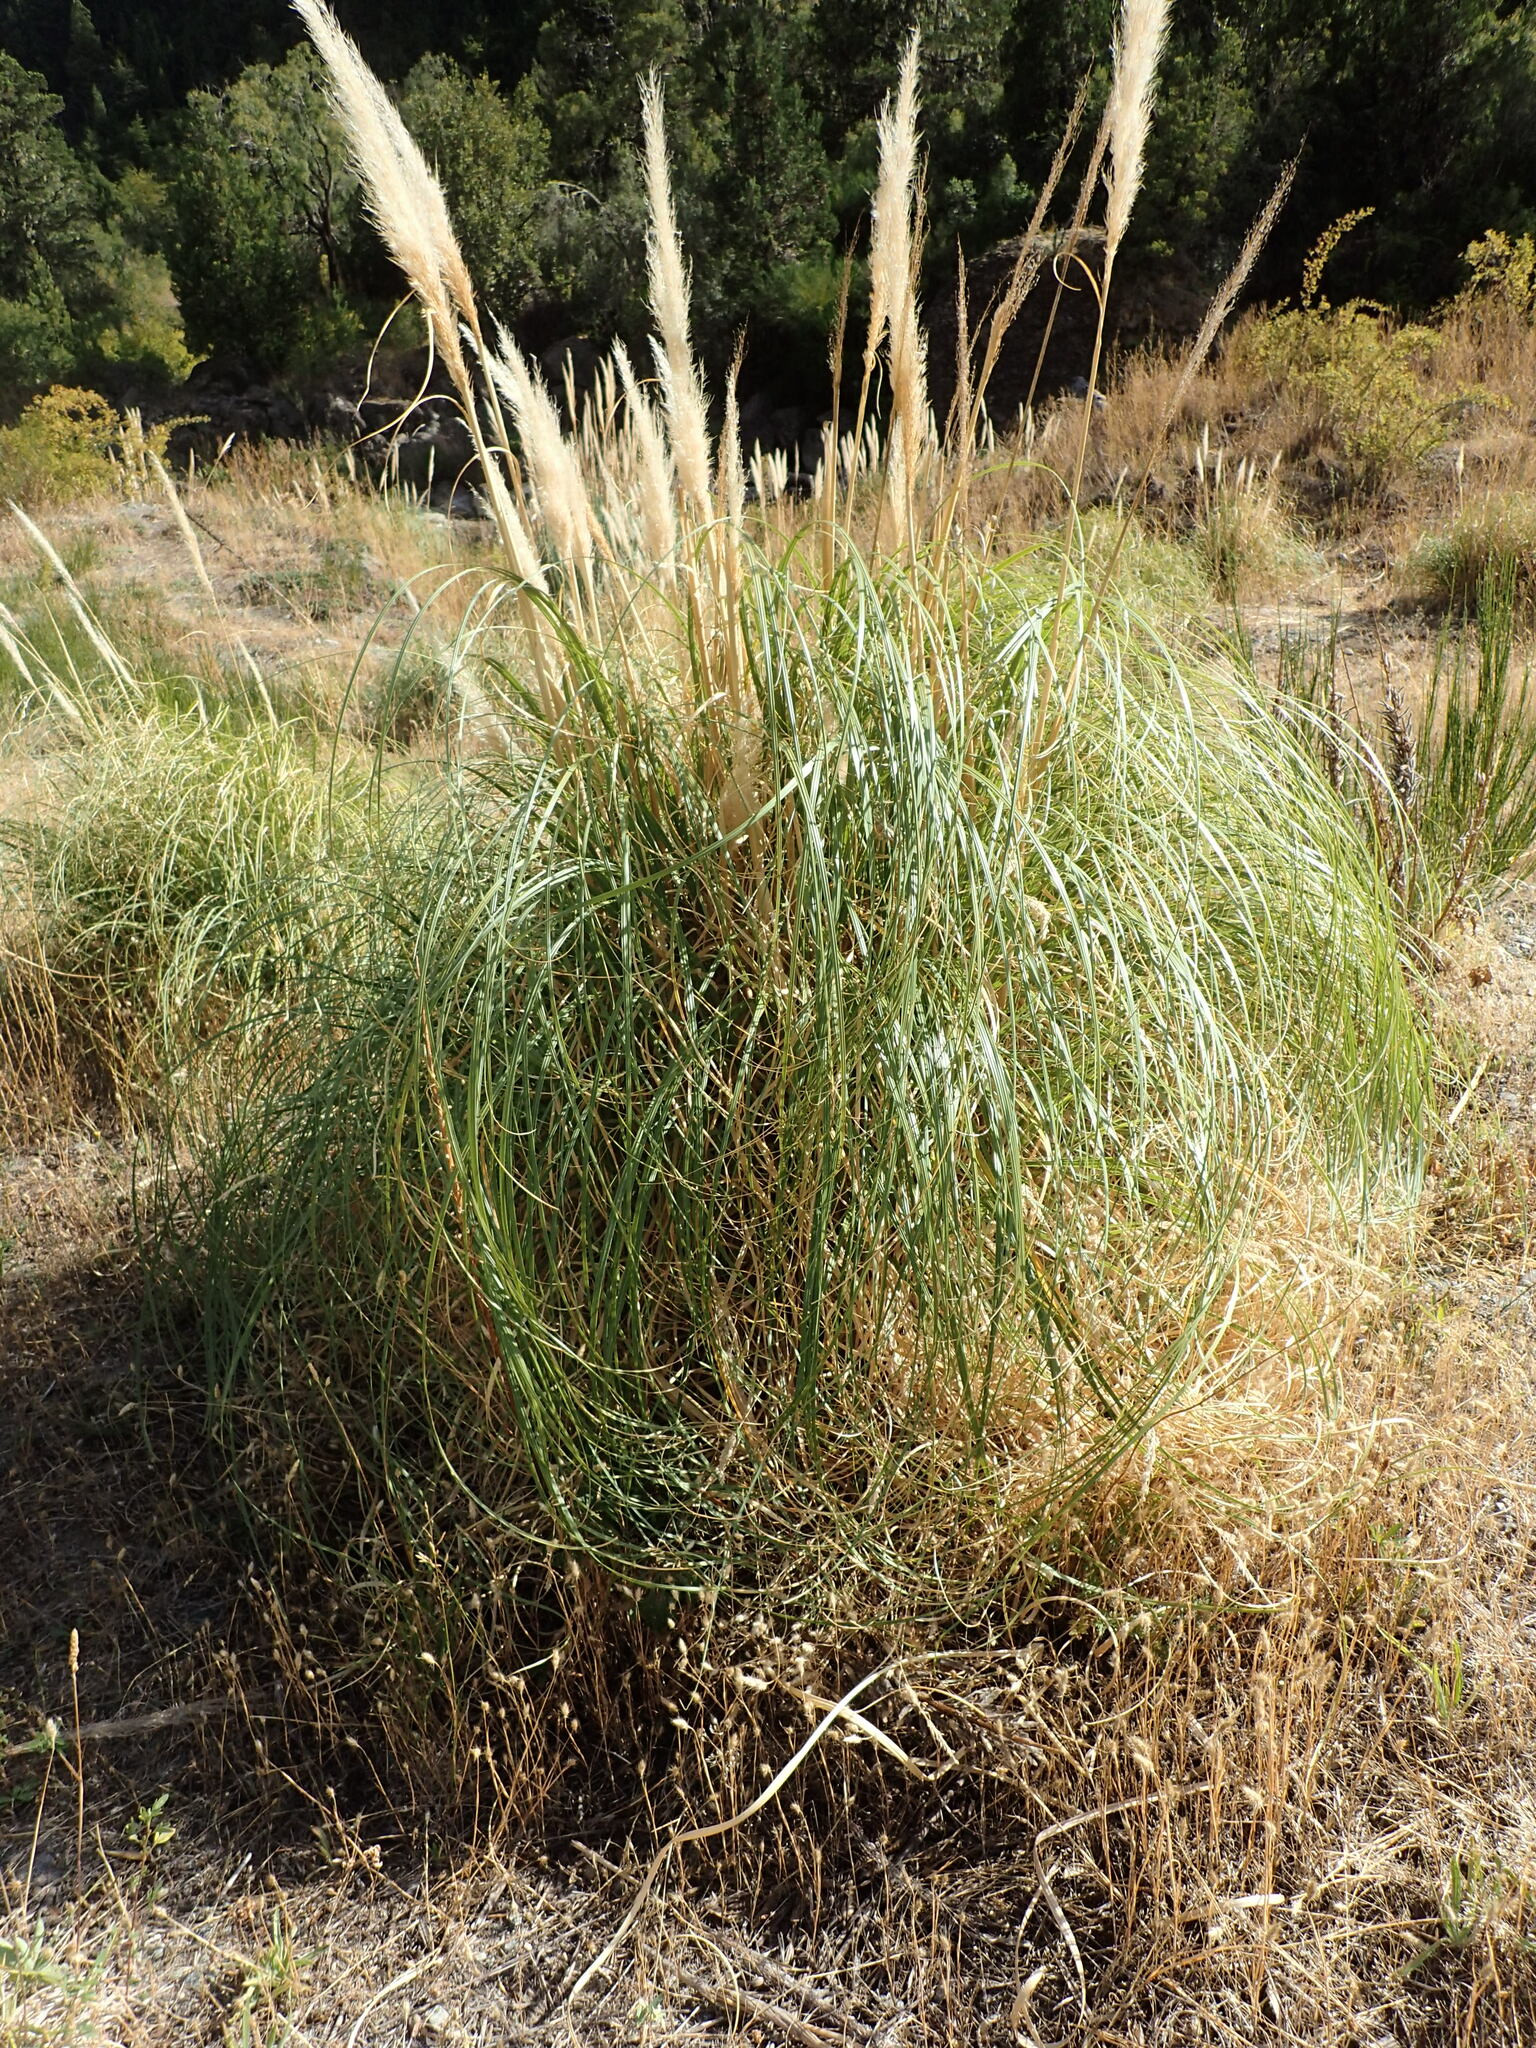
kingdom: Plantae
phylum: Tracheophyta
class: Liliopsida
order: Poales
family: Poaceae
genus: Cortaderia
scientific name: Cortaderia selloana
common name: Uruguayan pampas grass
